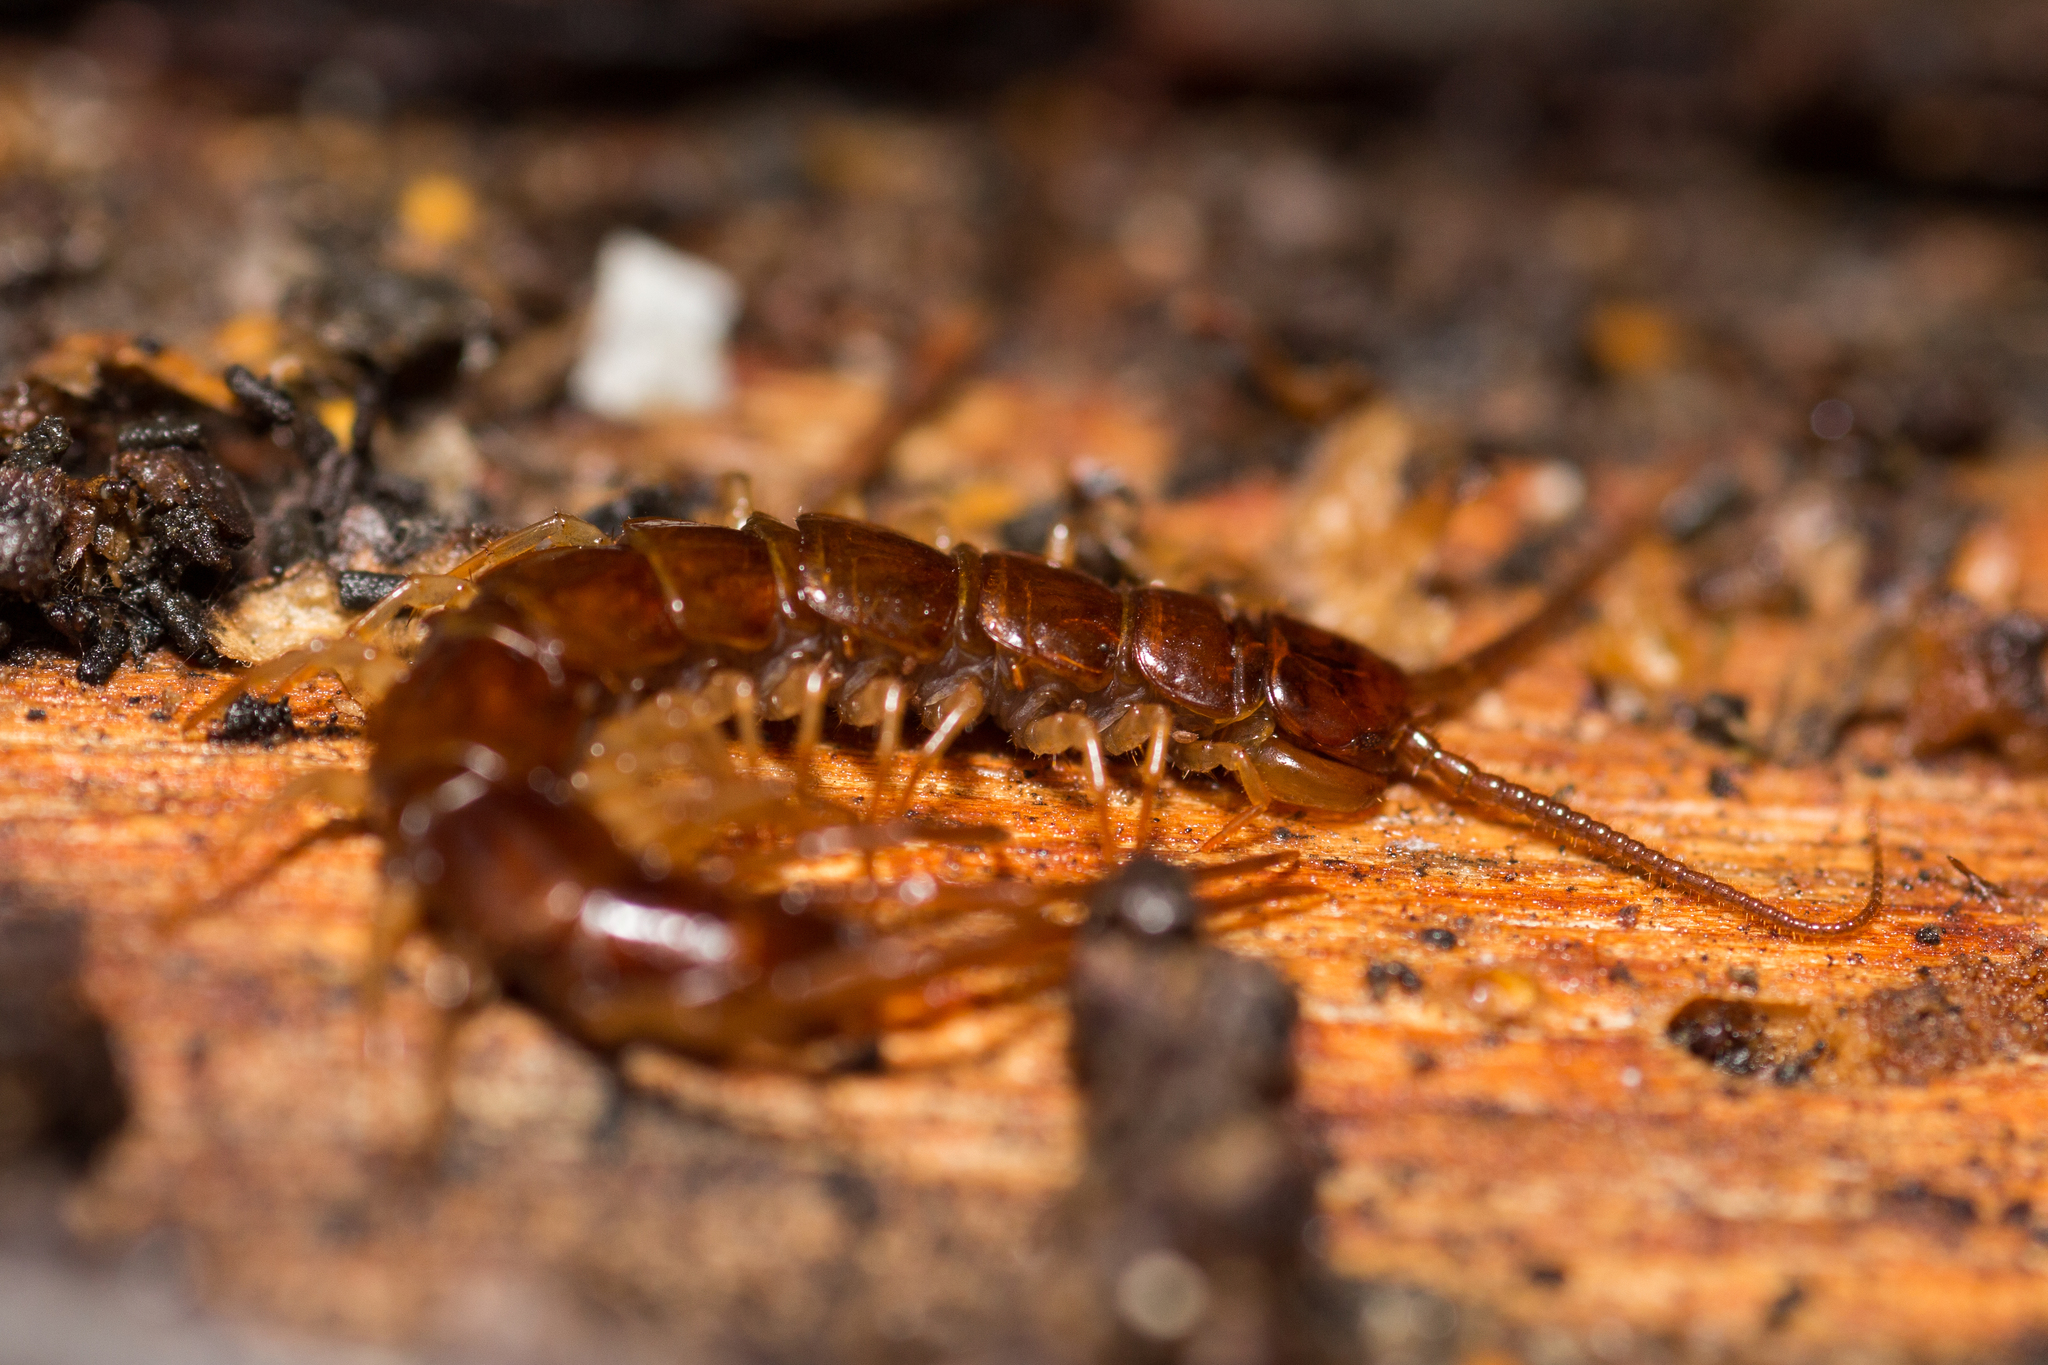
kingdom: Animalia
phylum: Arthropoda
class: Chilopoda
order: Lithobiomorpha
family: Lithobiidae
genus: Lithobius
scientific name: Lithobius forficatus
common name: Centipede
